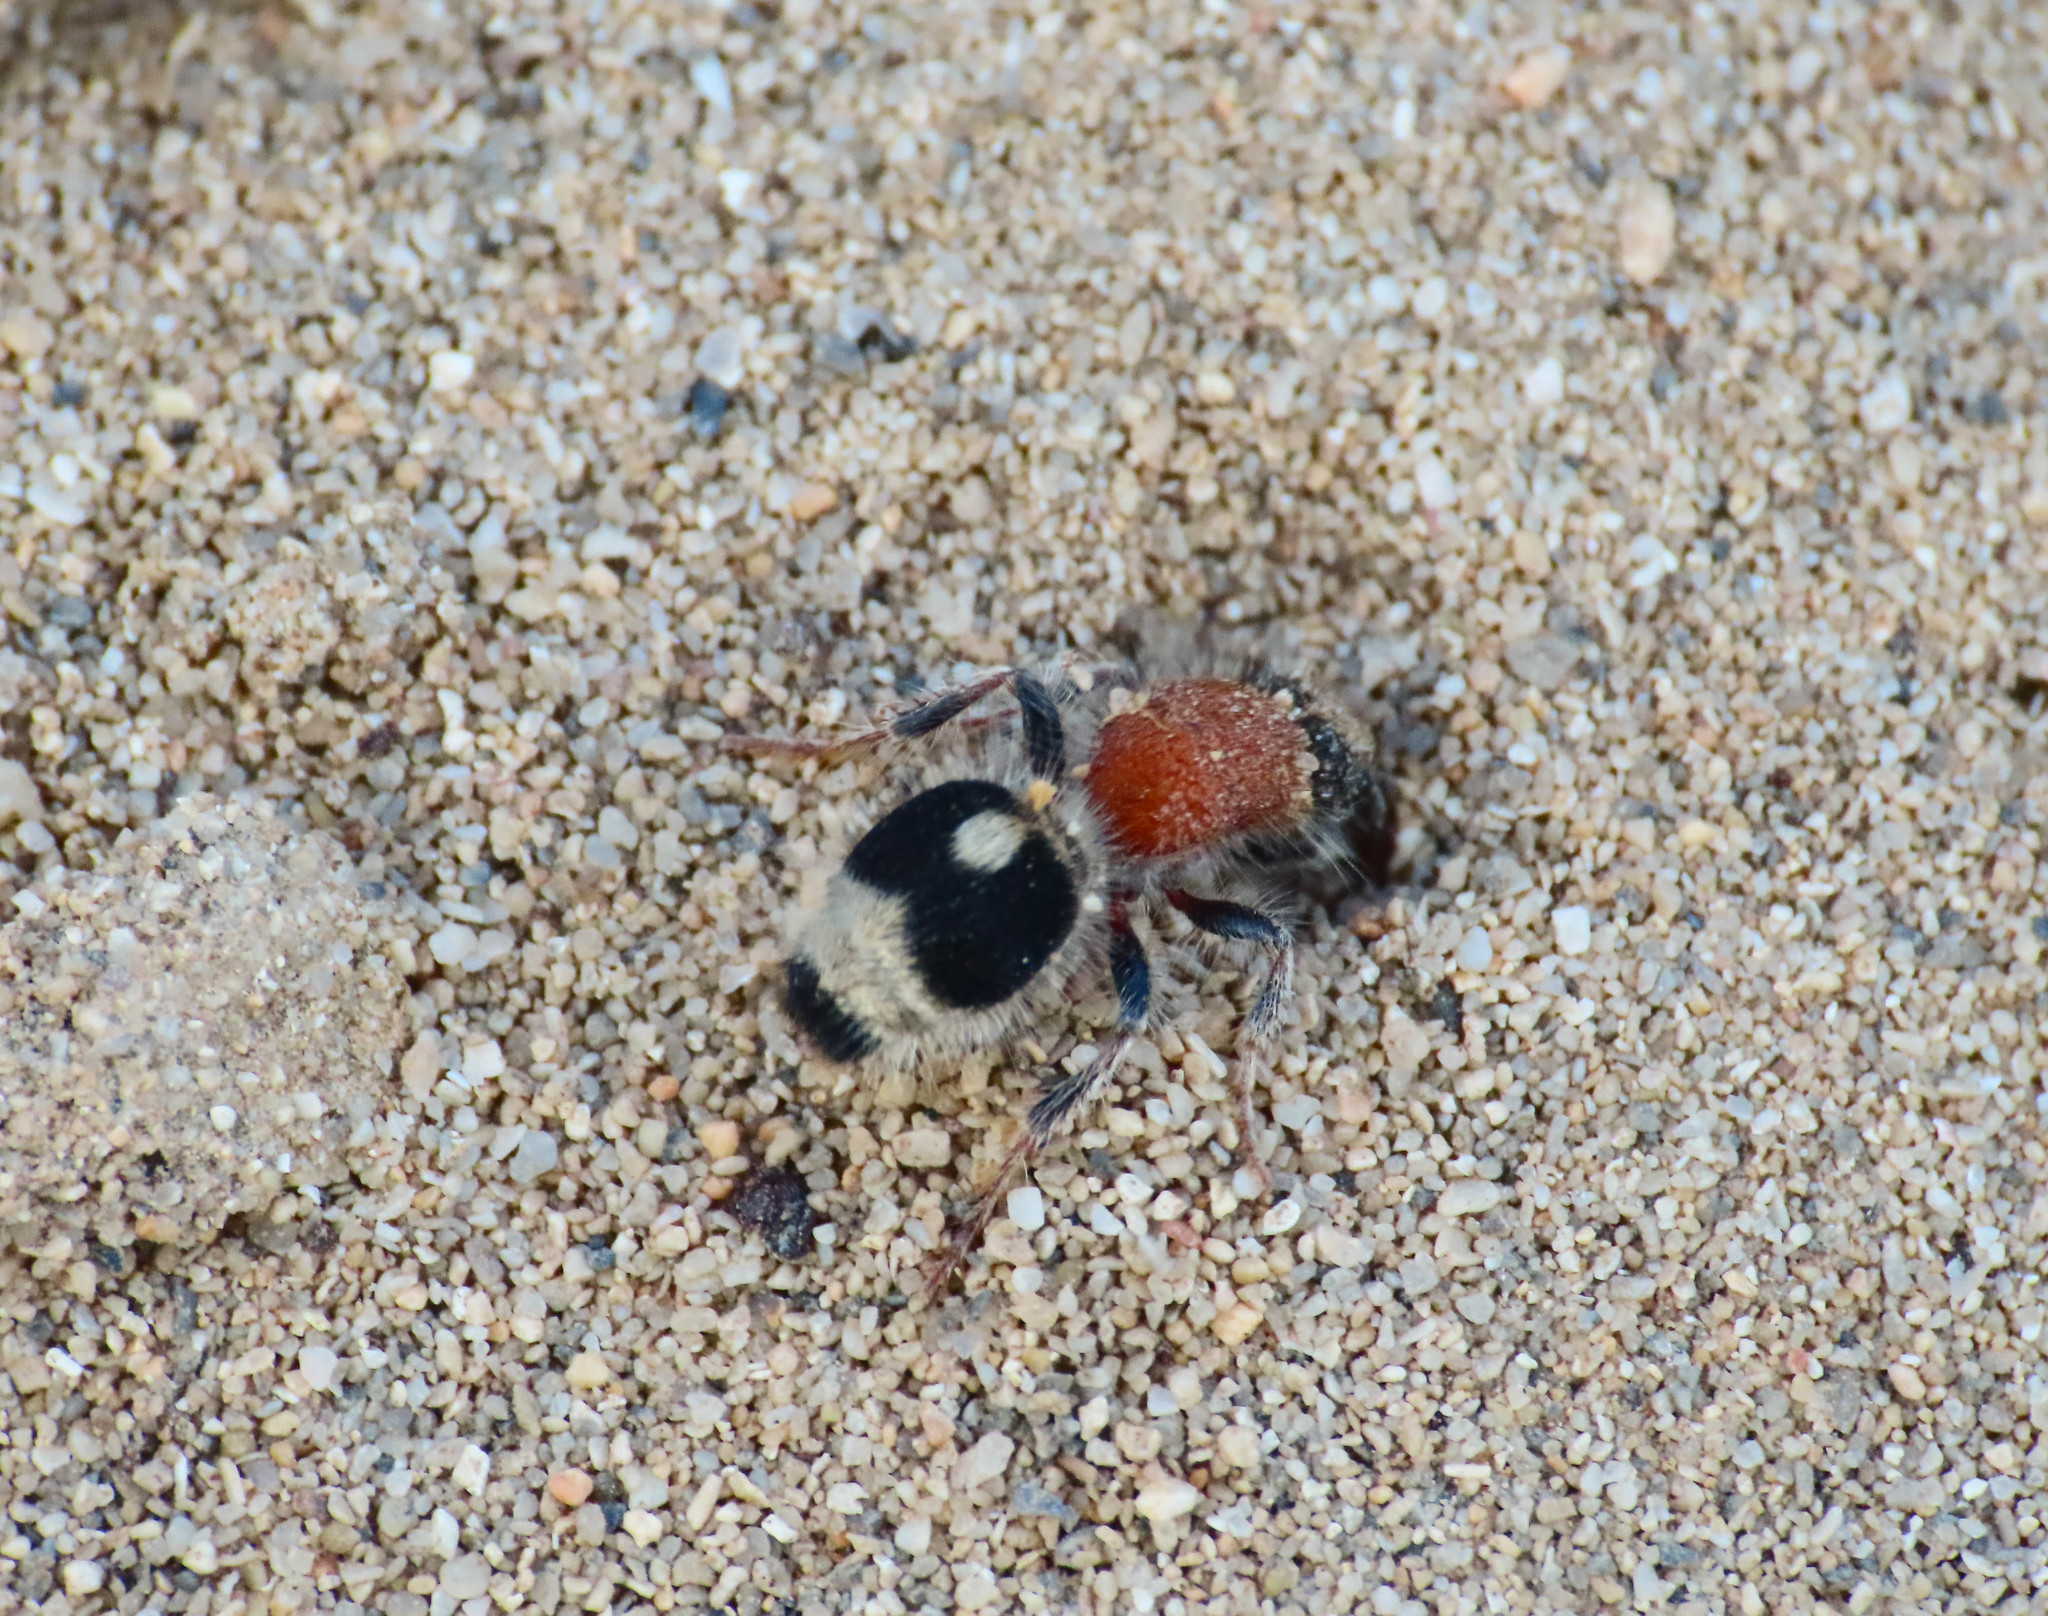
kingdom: Animalia
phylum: Arthropoda
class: Insecta
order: Hymenoptera
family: Mutillidae
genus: Nemka
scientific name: Nemka viduata
